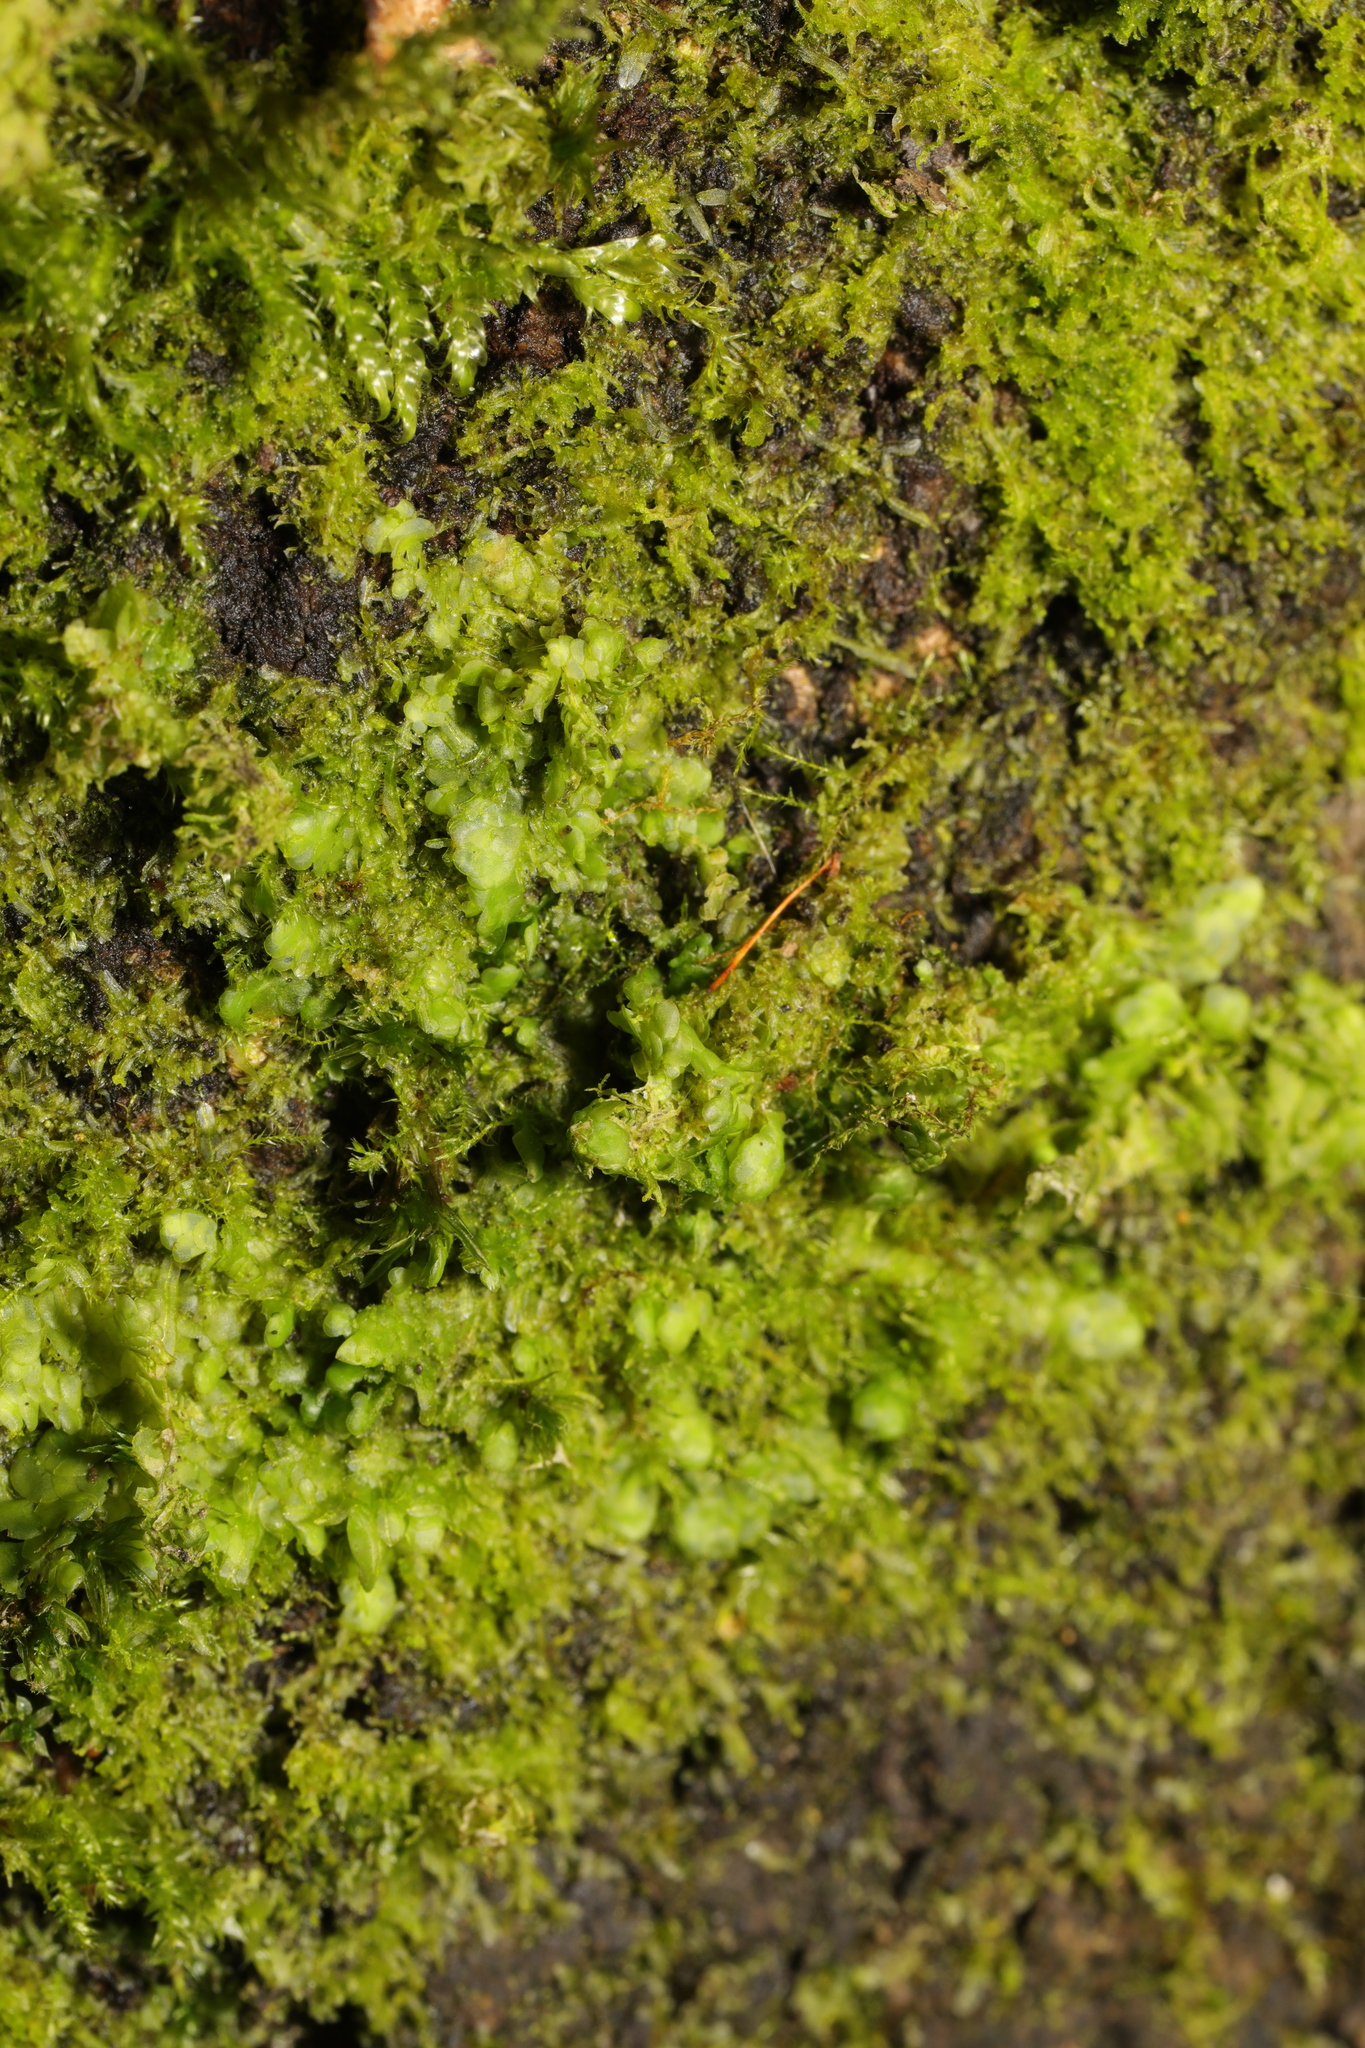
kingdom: Plantae
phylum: Marchantiophyta
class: Jungermanniopsida
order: Porellales
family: Radulaceae
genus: Radula
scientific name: Radula complanata
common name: Flat-leaved scalewort
